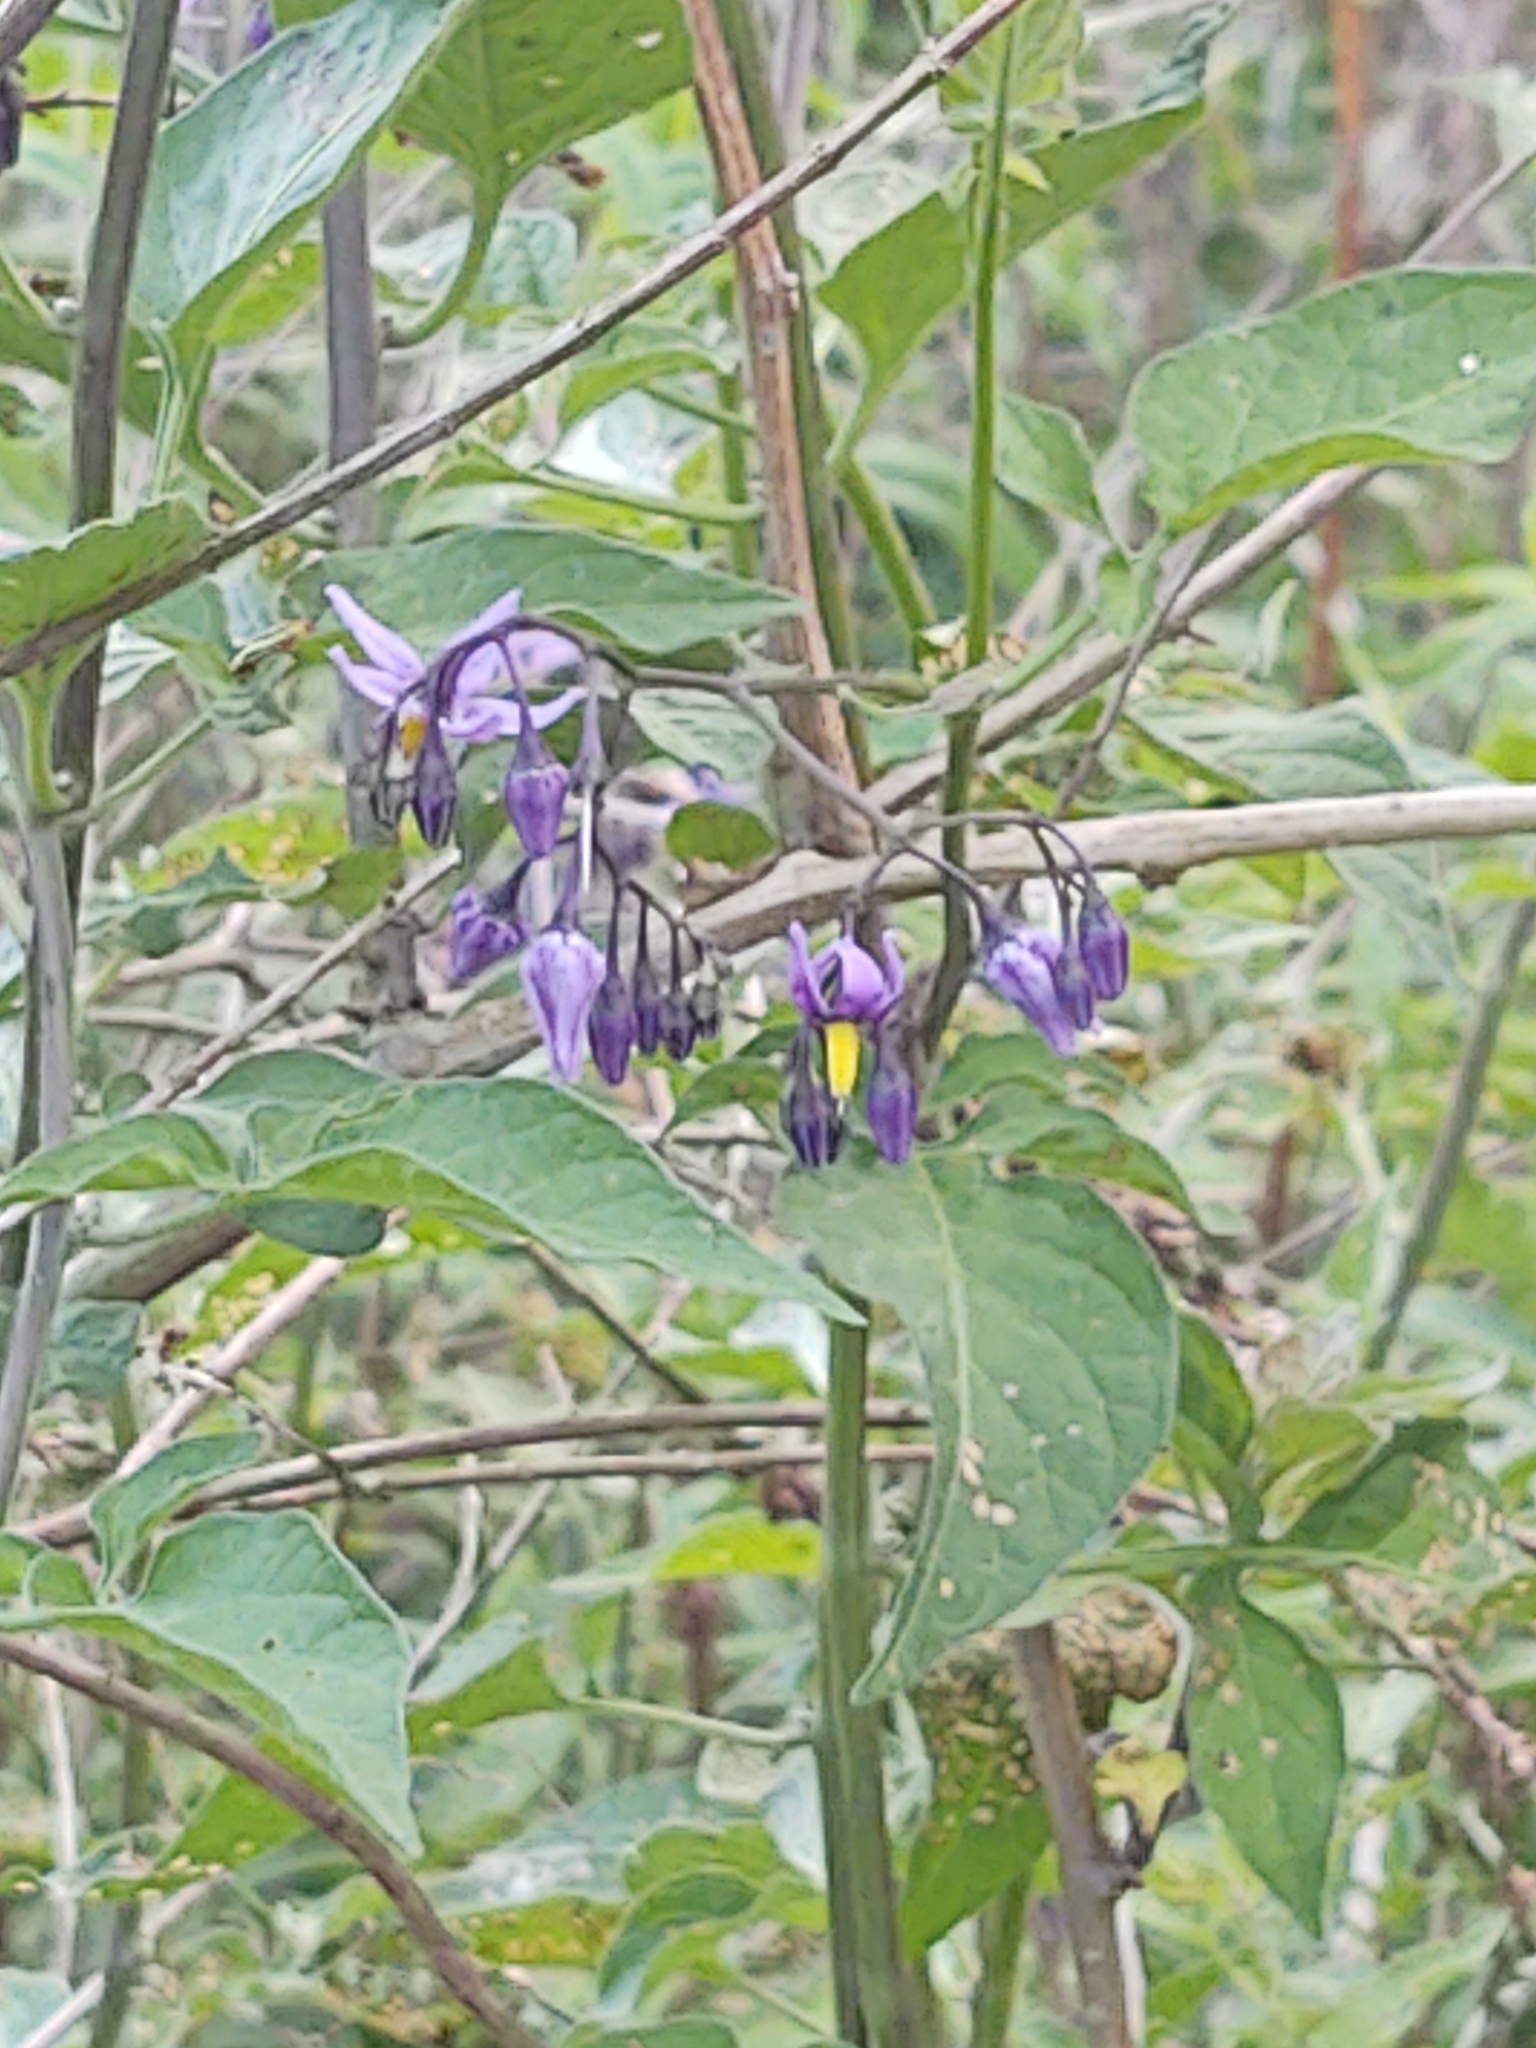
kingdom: Plantae
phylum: Tracheophyta
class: Magnoliopsida
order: Solanales
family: Solanaceae
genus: Solanum
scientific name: Solanum dulcamara
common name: Climbing nightshade
